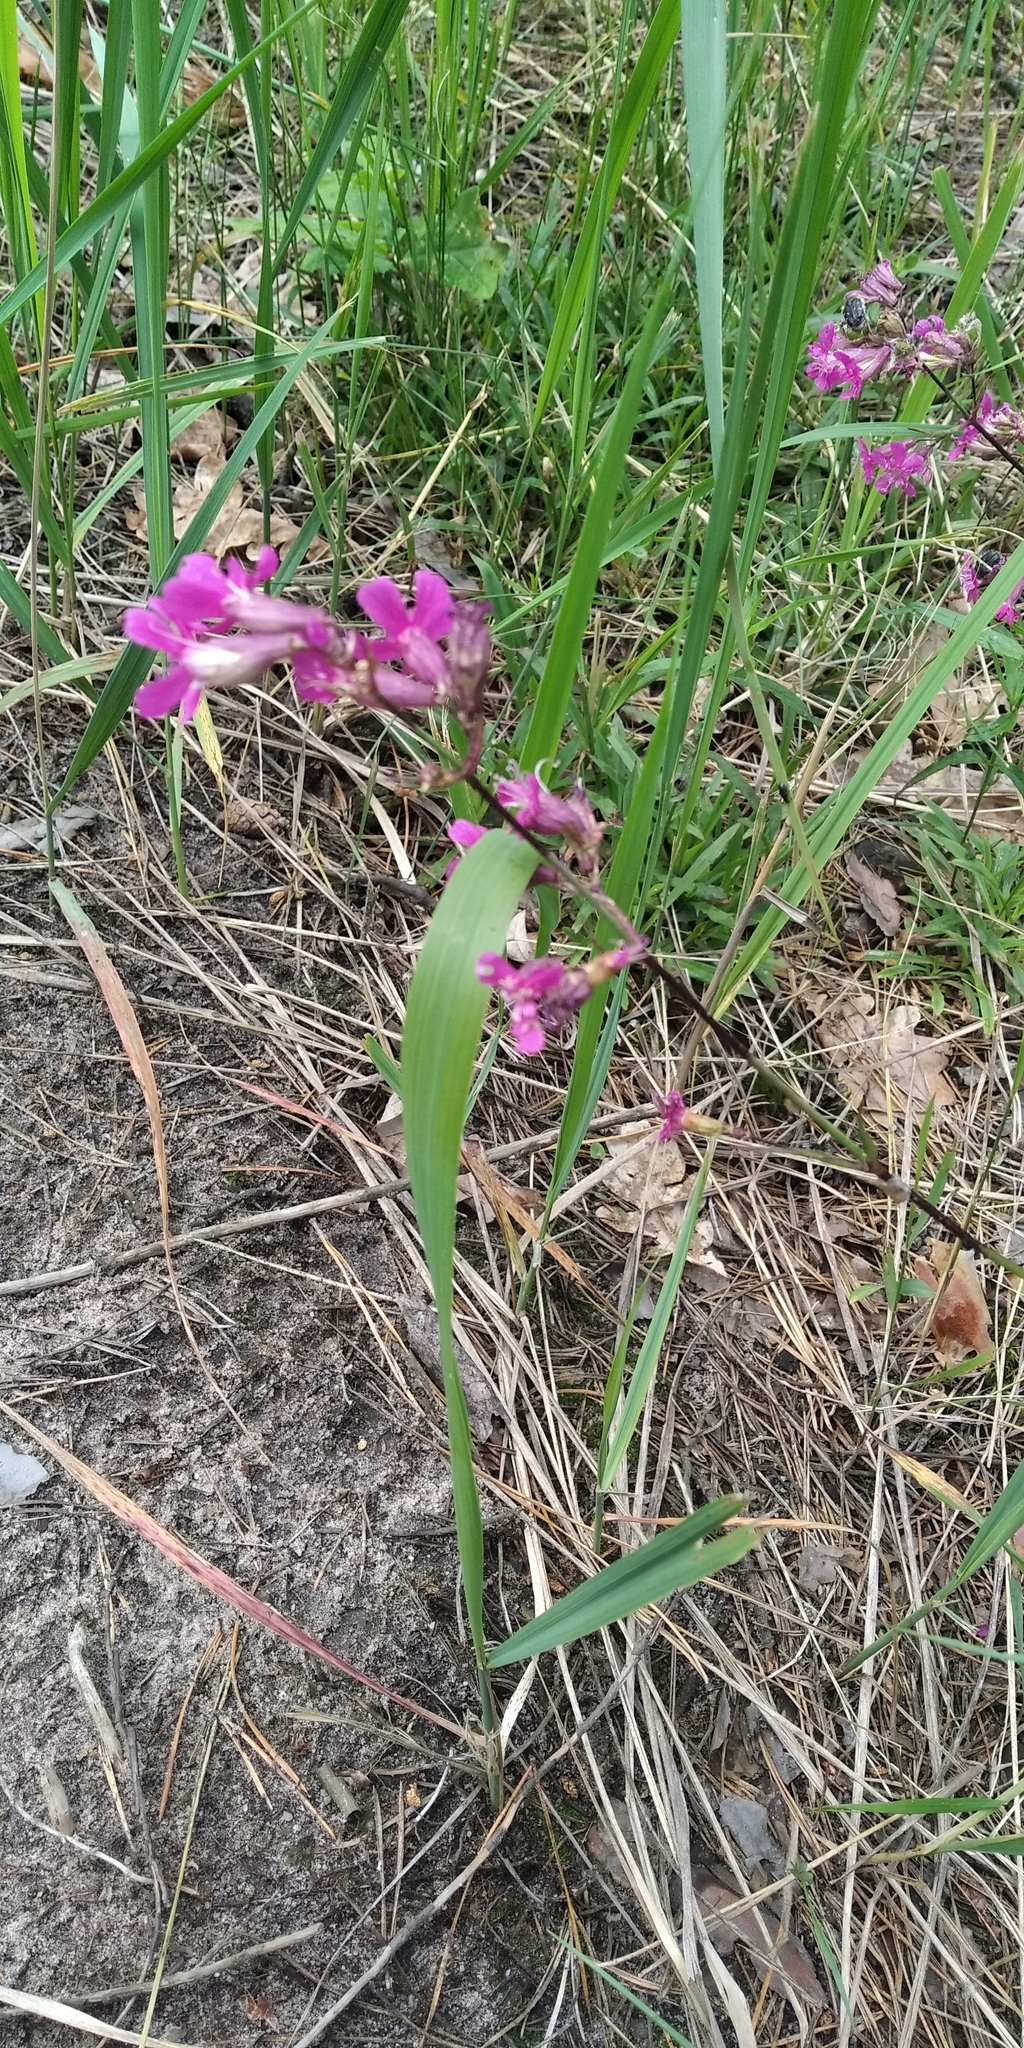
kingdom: Plantae
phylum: Tracheophyta
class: Magnoliopsida
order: Caryophyllales
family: Caryophyllaceae
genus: Viscaria
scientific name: Viscaria vulgaris
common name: Clammy campion
